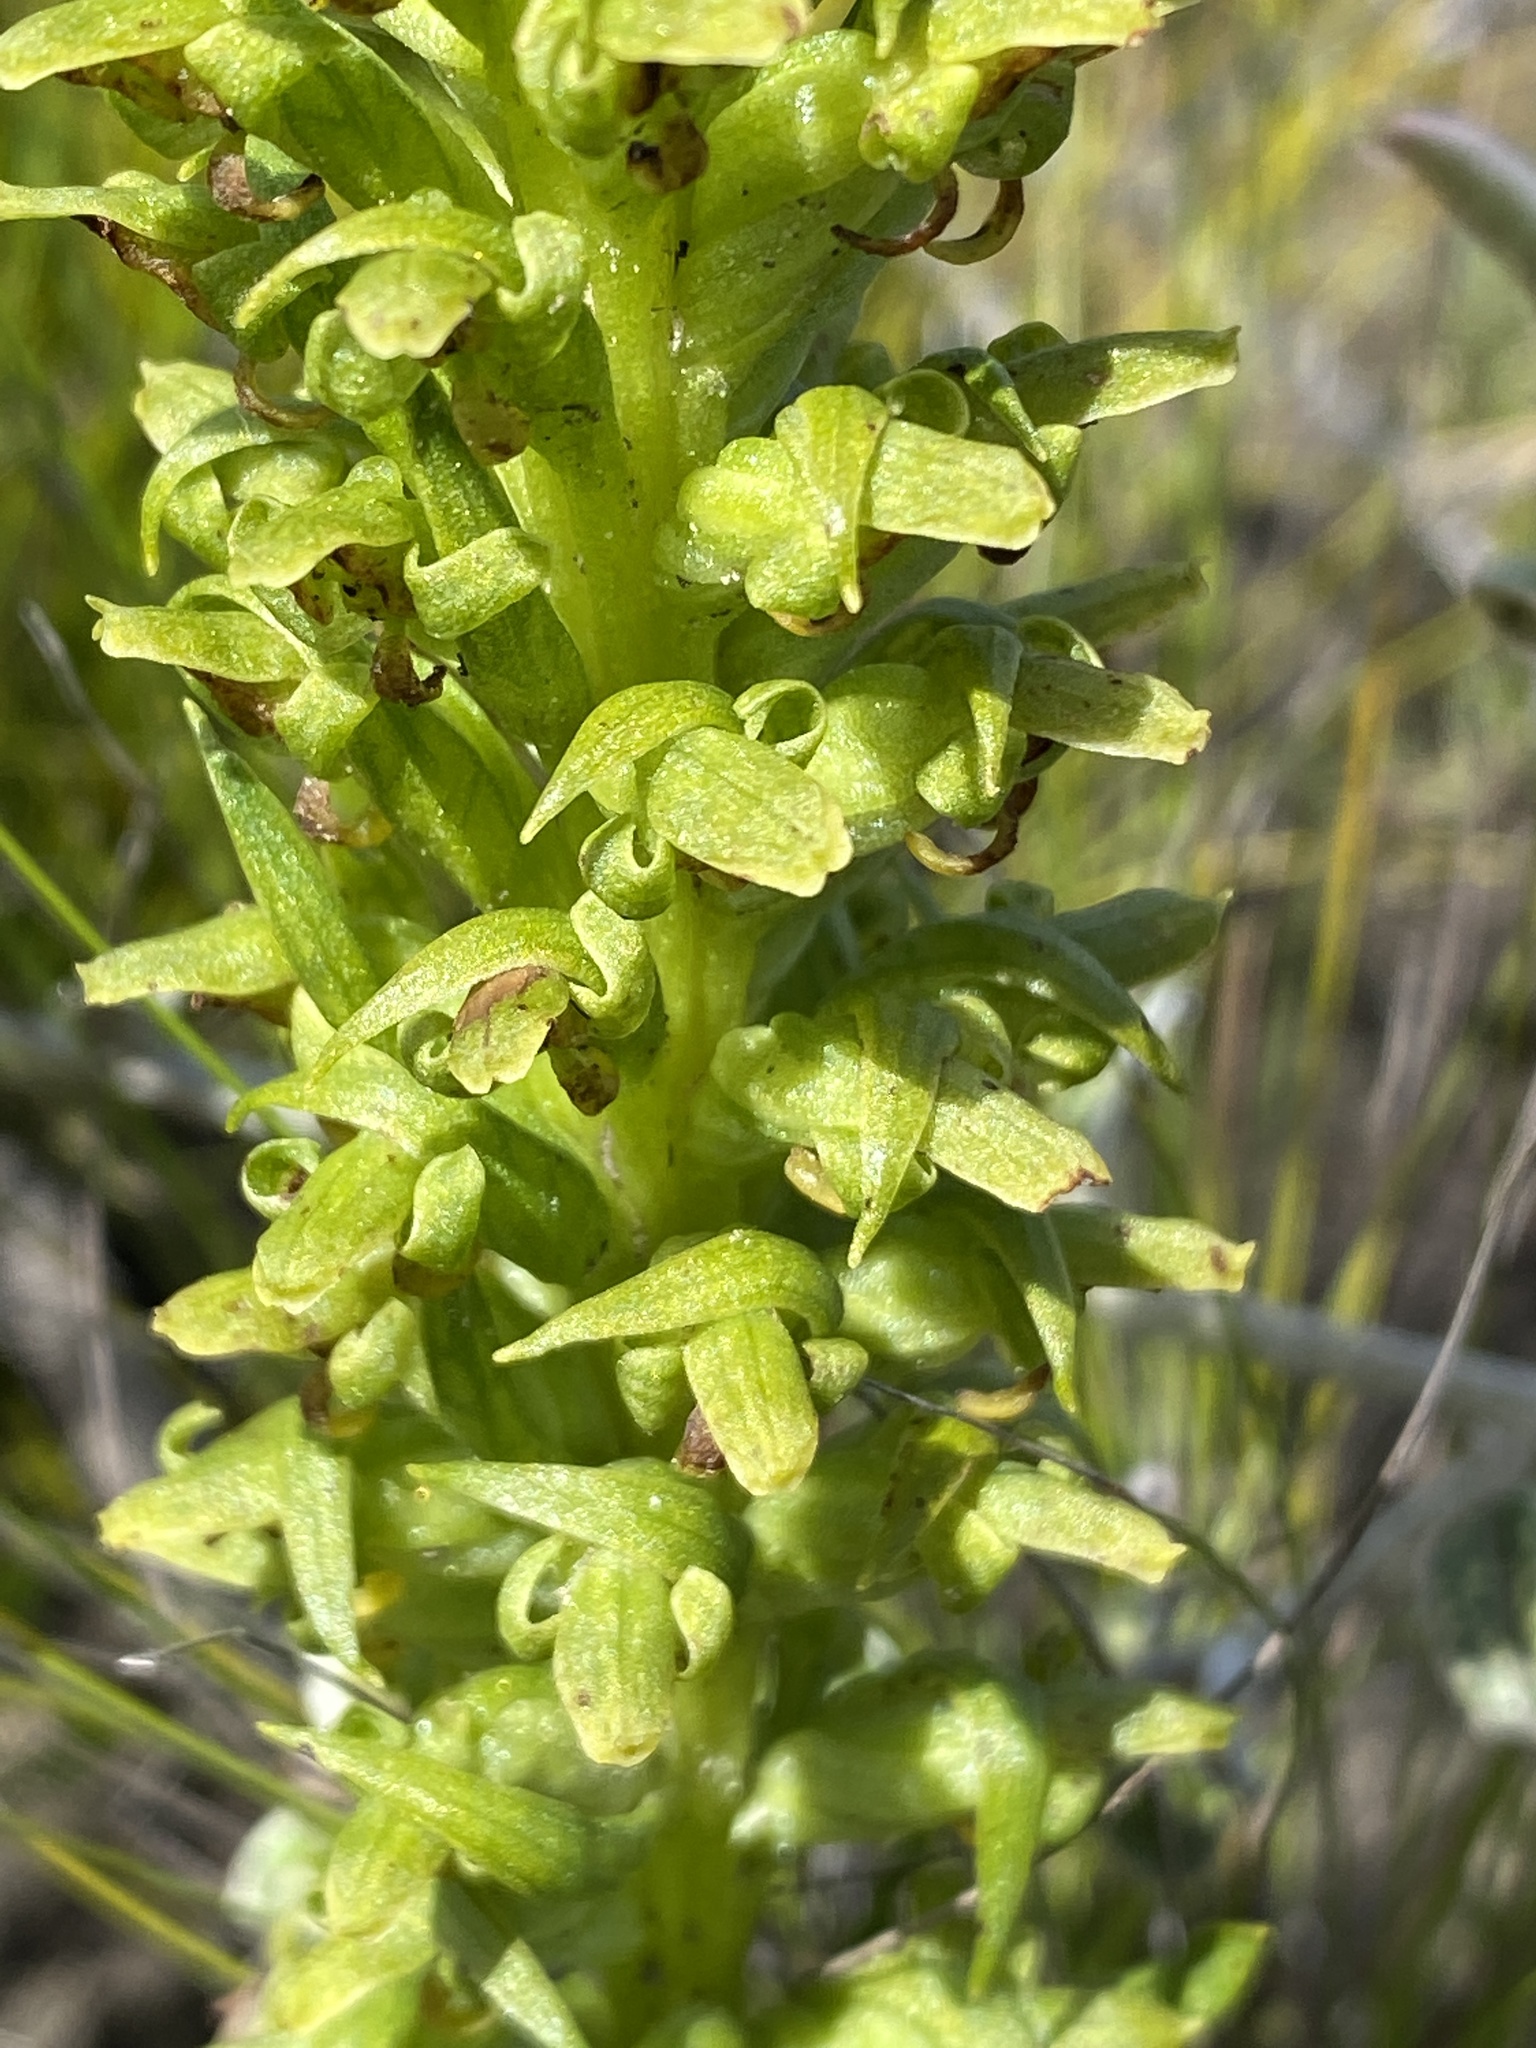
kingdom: Plantae
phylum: Tracheophyta
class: Liliopsida
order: Asparagales
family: Orchidaceae
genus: Disa
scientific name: Disa cylindrica
